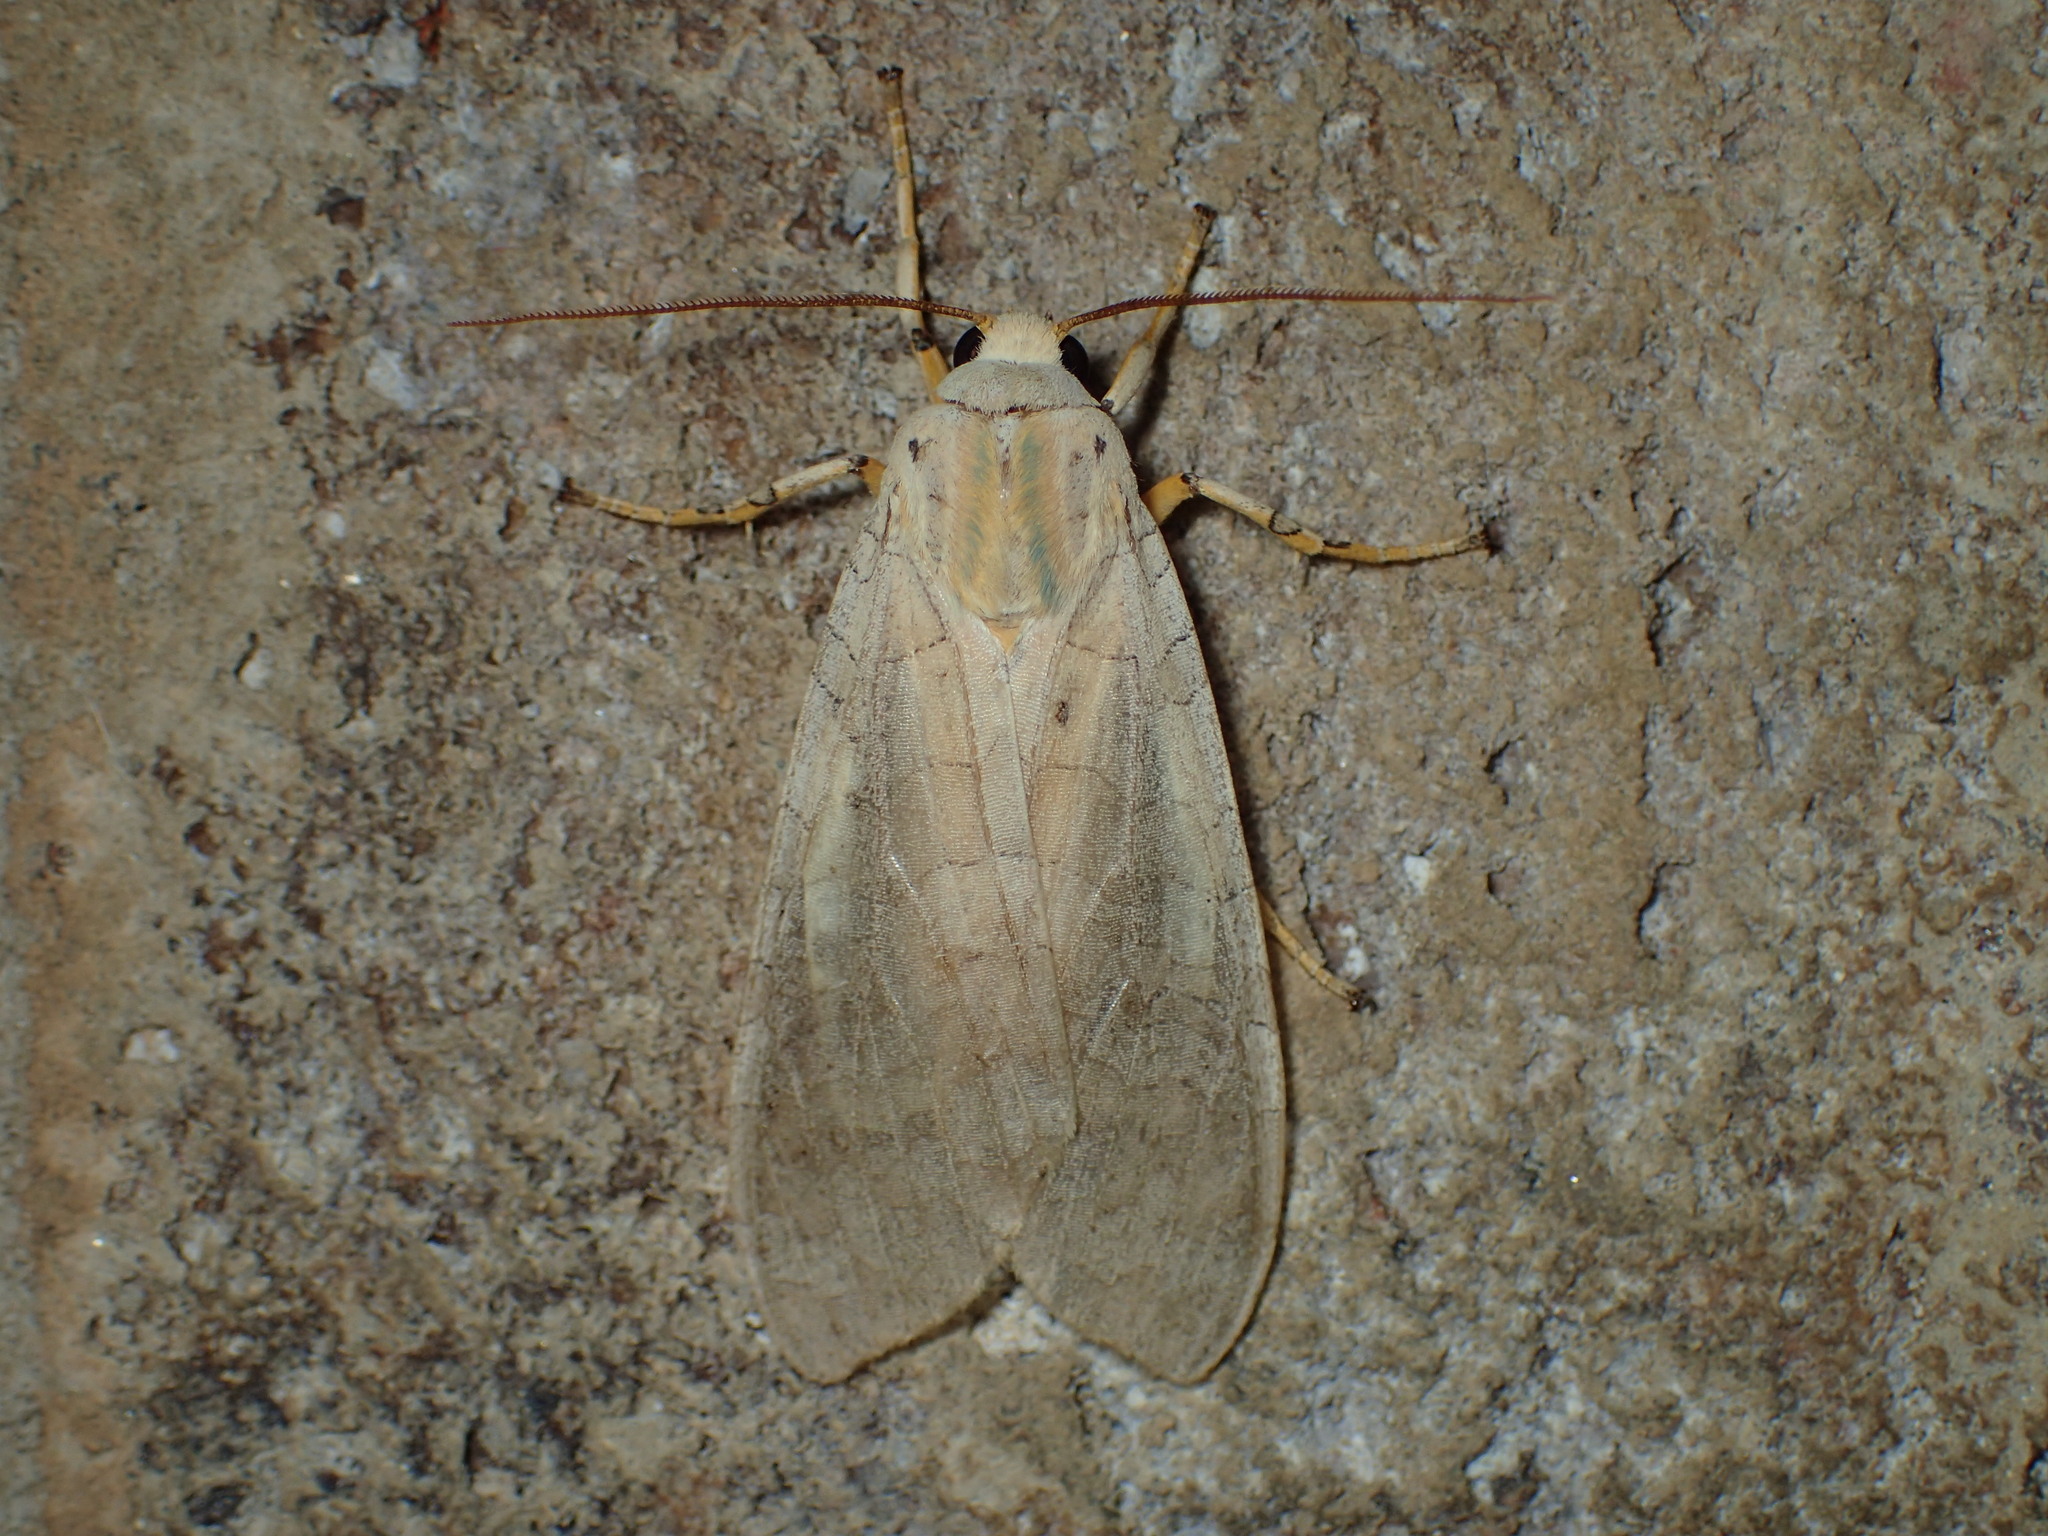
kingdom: Animalia
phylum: Arthropoda
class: Insecta
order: Lepidoptera
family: Erebidae
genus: Halysidota
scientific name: Halysidota
